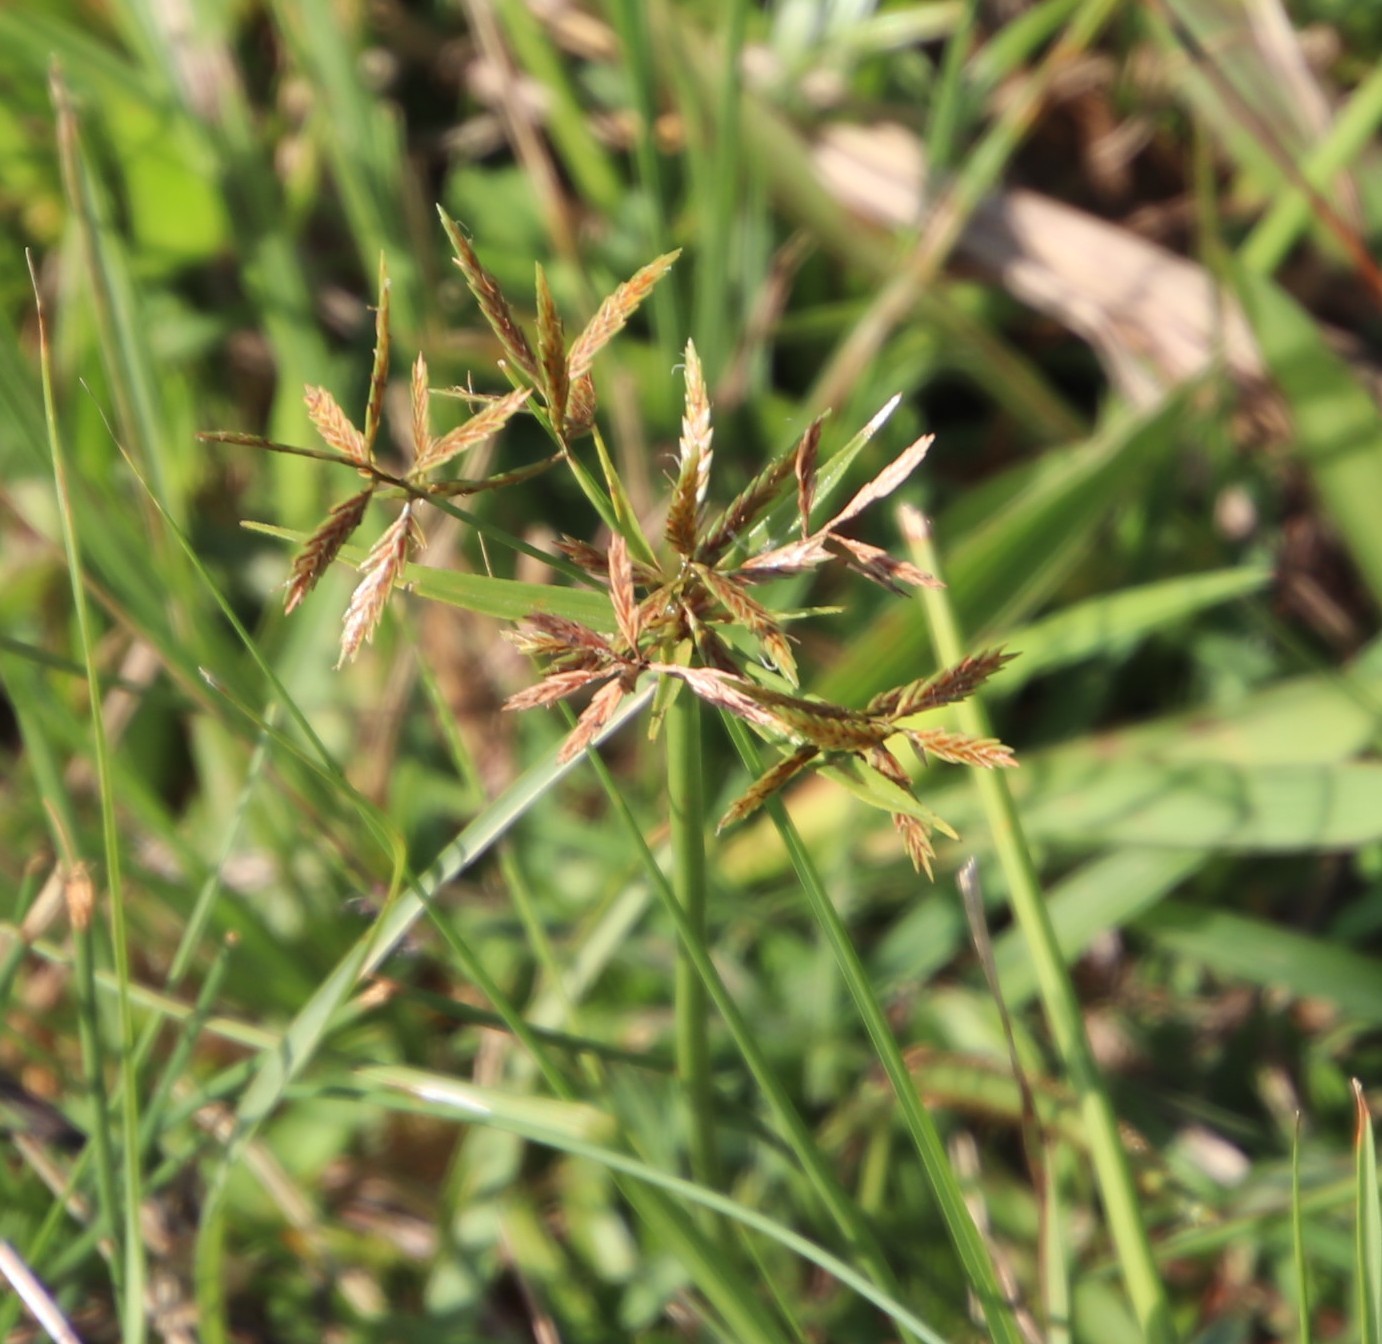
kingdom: Plantae
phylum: Tracheophyta
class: Liliopsida
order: Poales
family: Cyperaceae
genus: Cyperus
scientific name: Cyperus intactus
